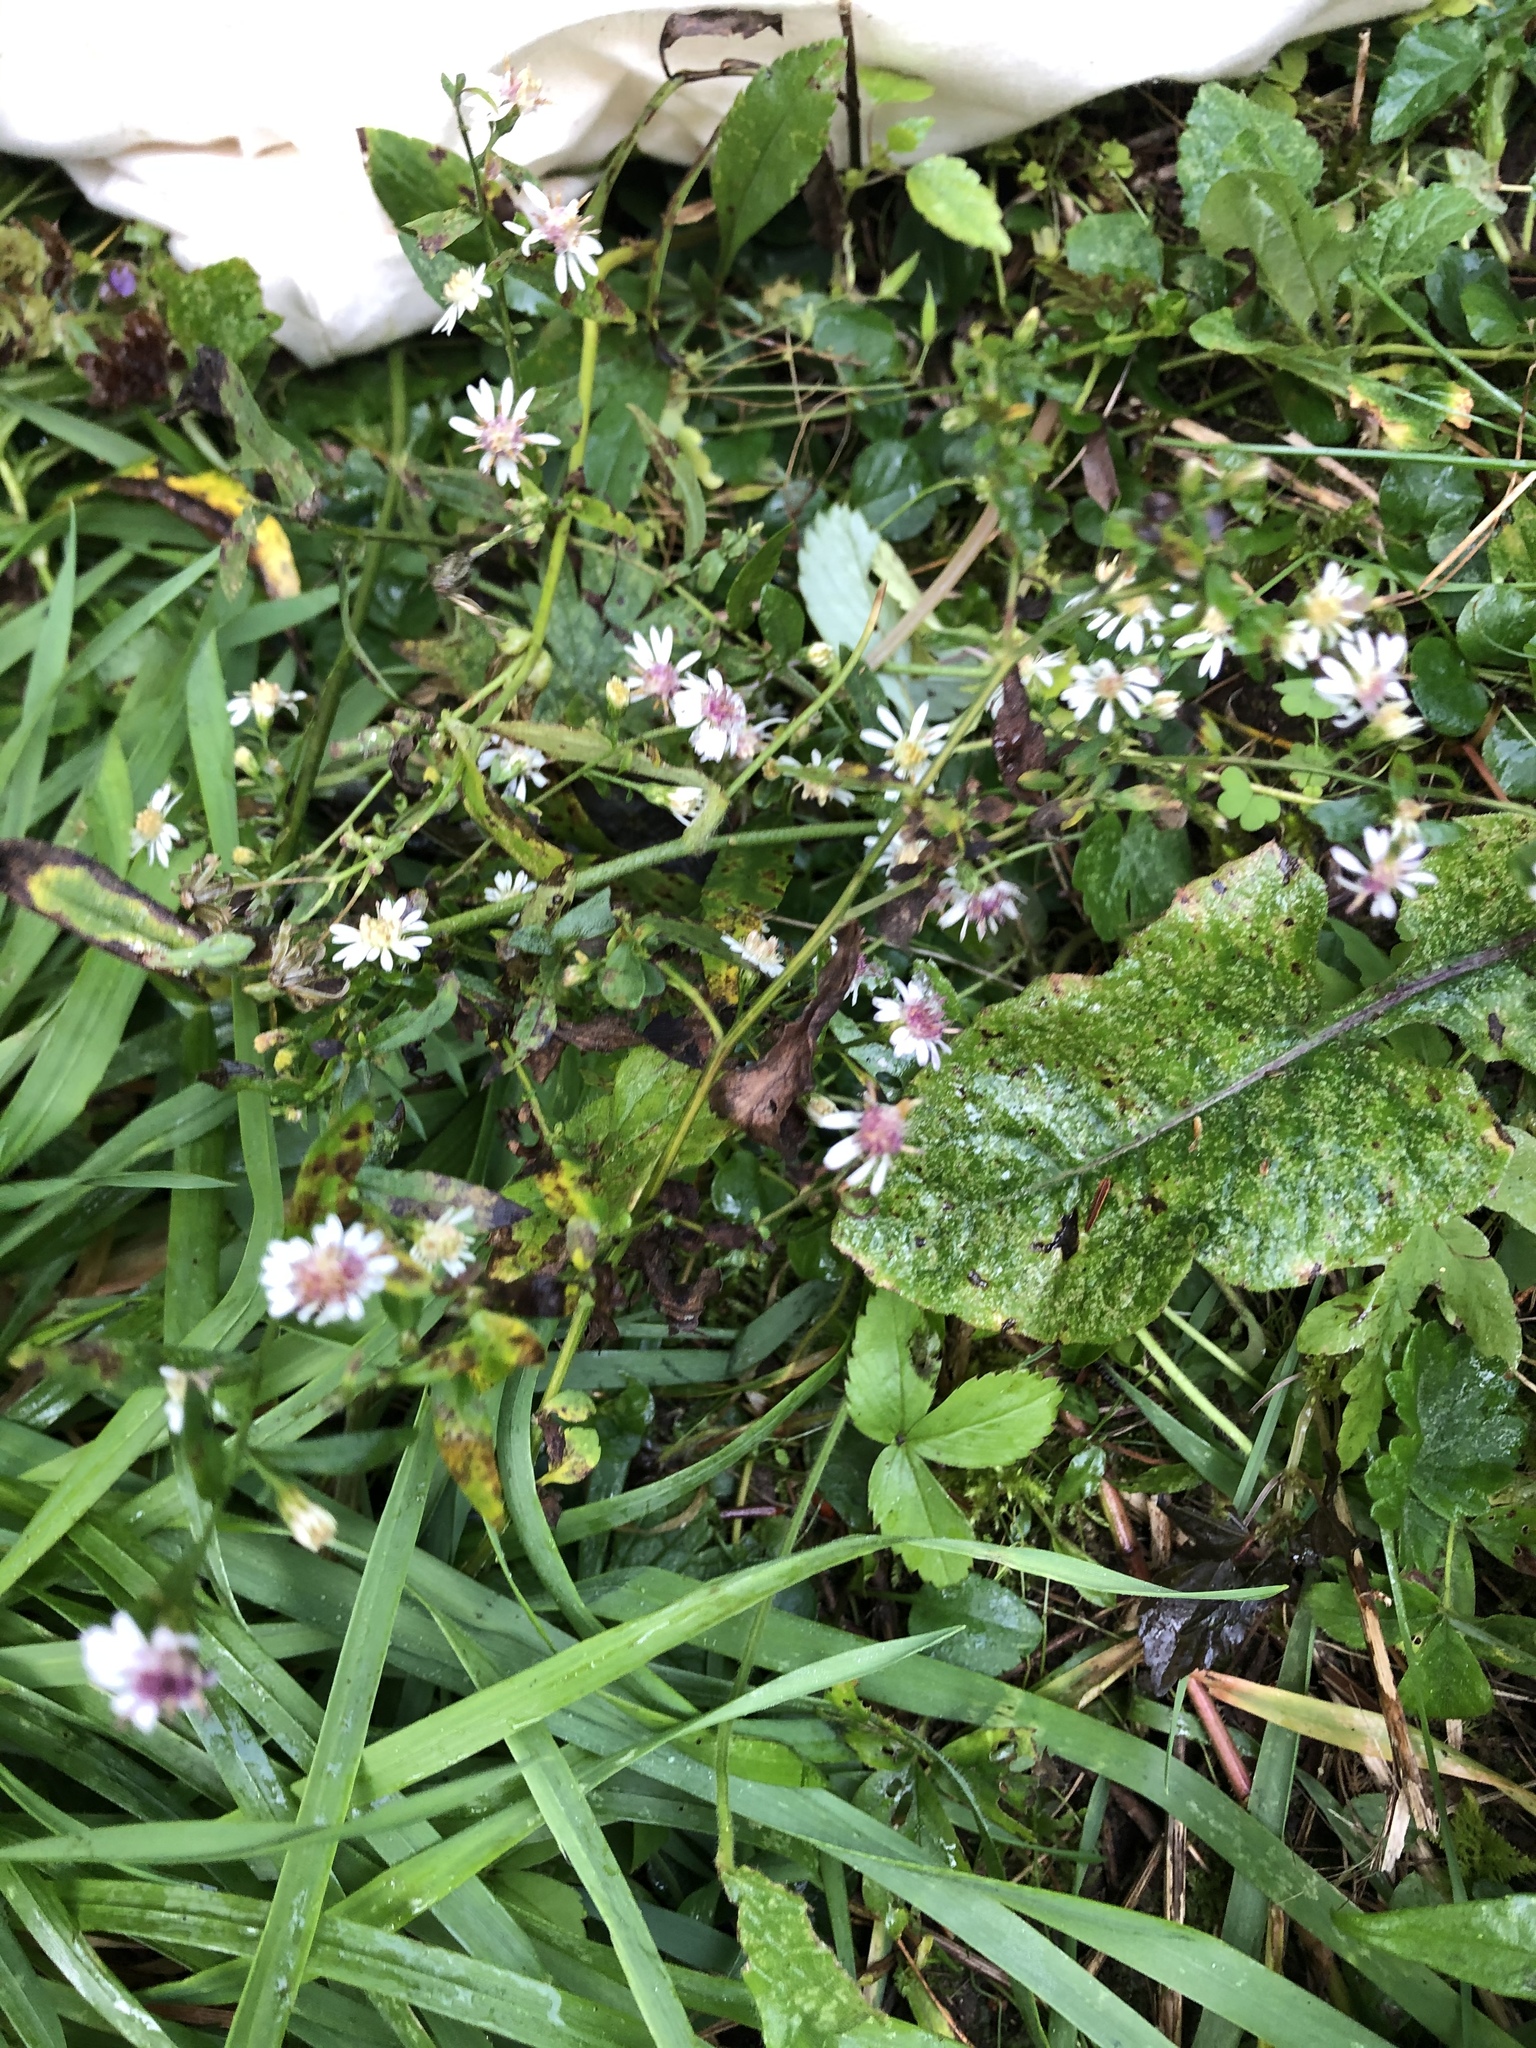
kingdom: Plantae
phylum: Tracheophyta
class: Magnoliopsida
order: Asterales
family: Asteraceae
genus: Symphyotrichum
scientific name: Symphyotrichum lateriflorum
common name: Calico aster
